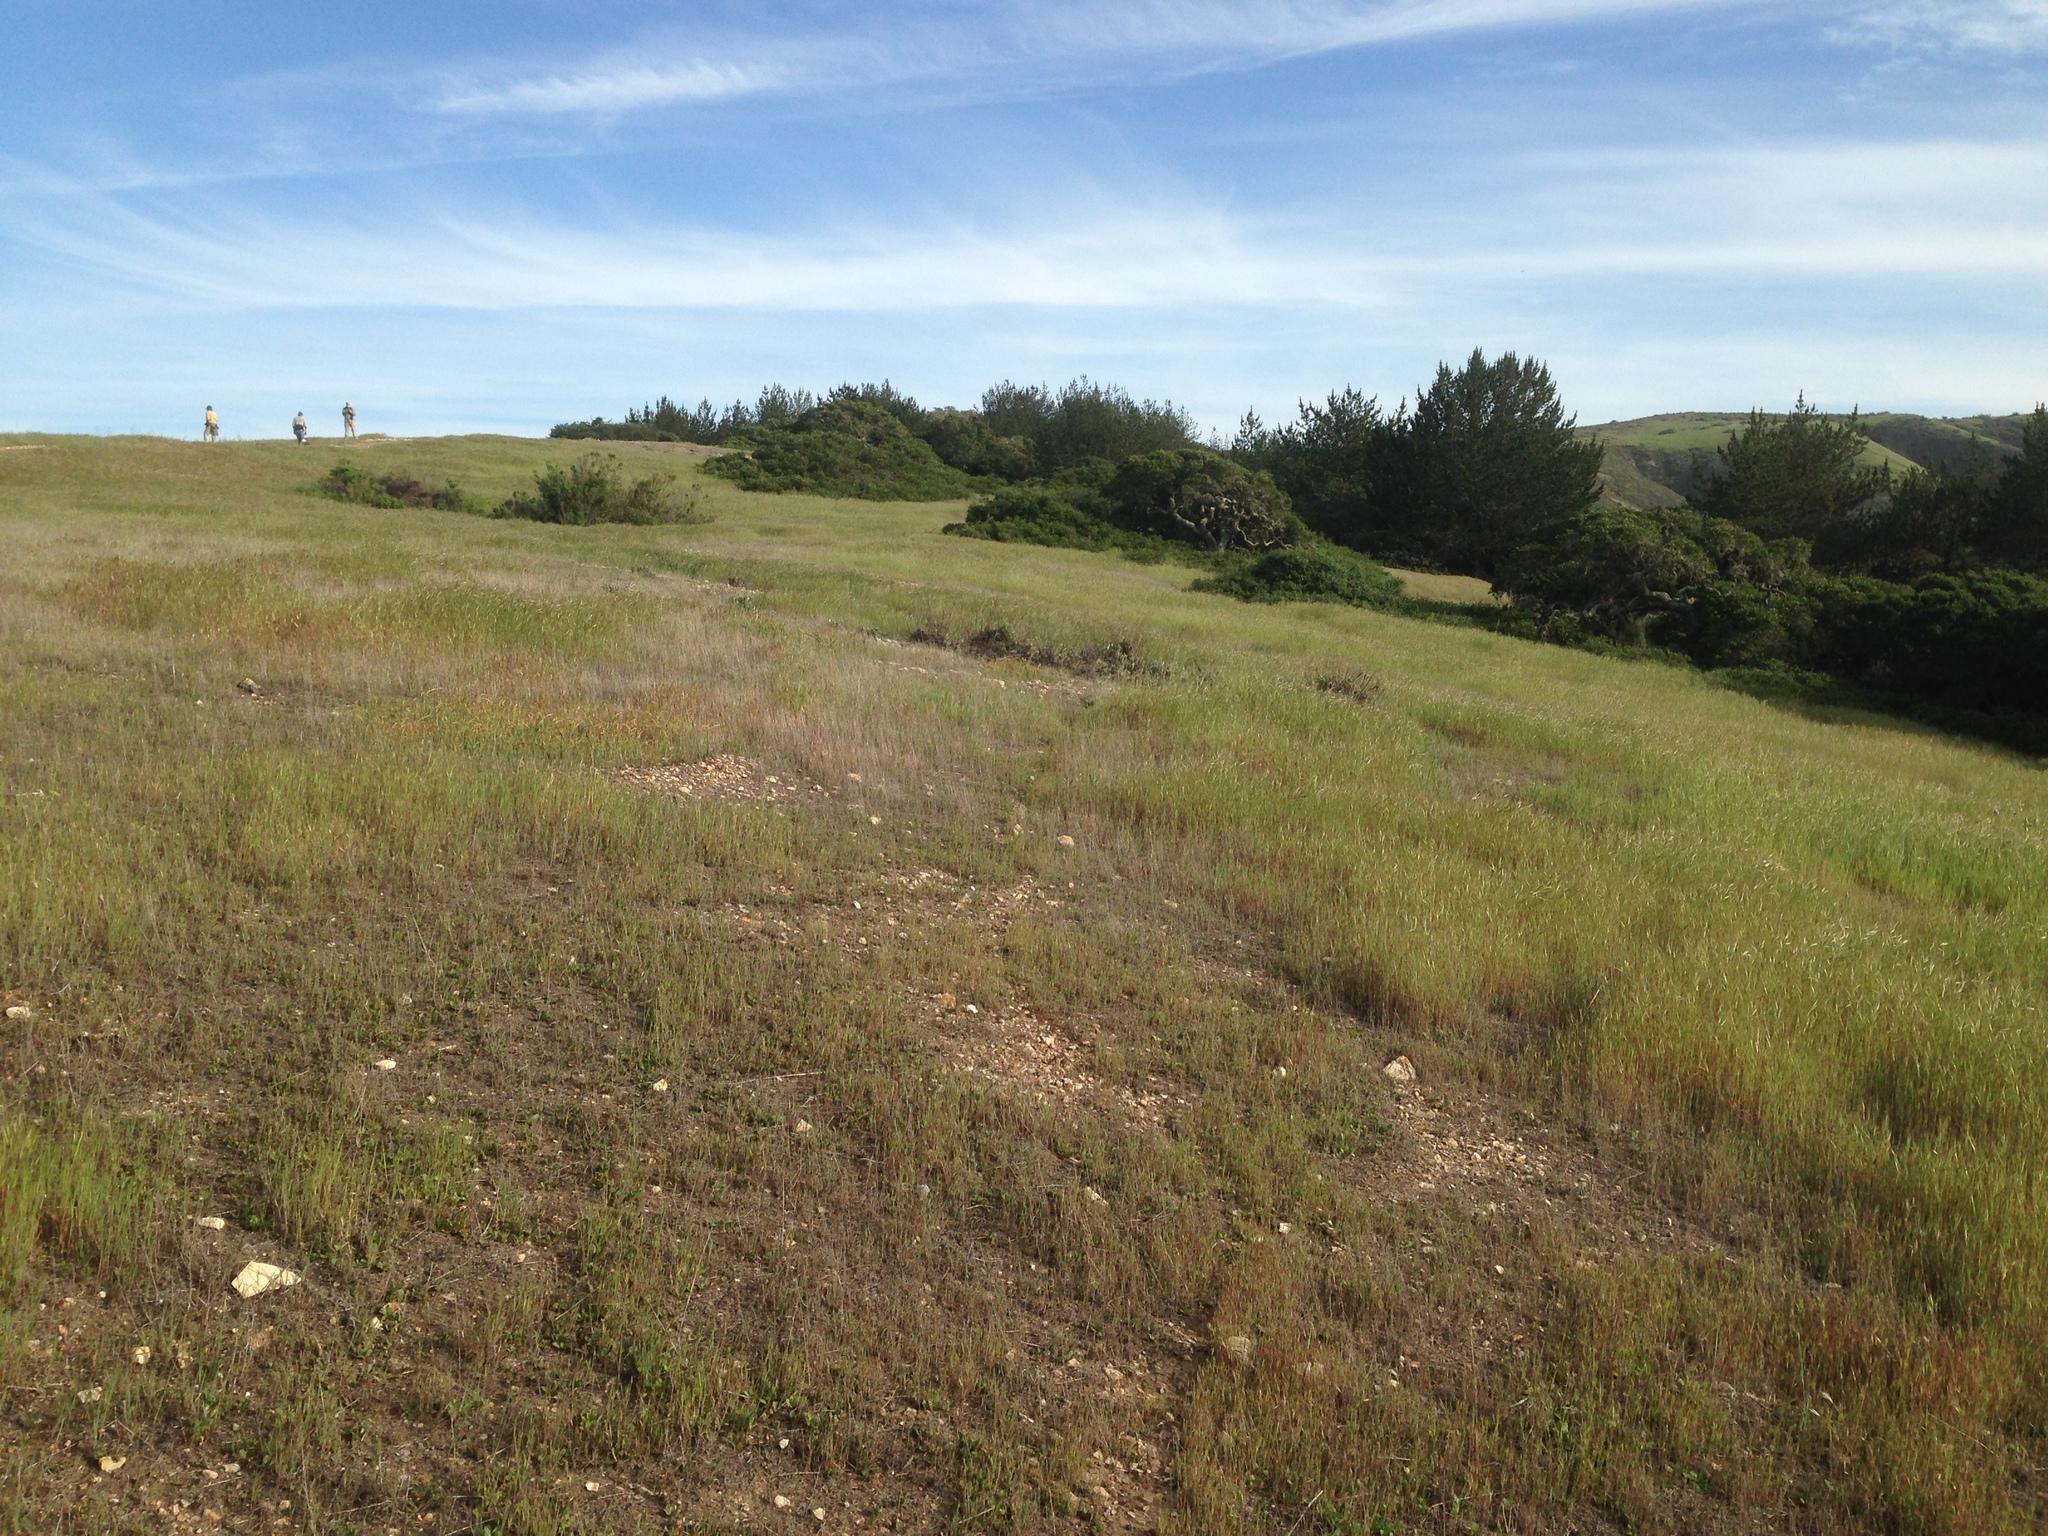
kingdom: Plantae
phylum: Tracheophyta
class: Pinopsida
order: Pinales
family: Pinaceae
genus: Pinus
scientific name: Pinus muricata
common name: Bishop pine
